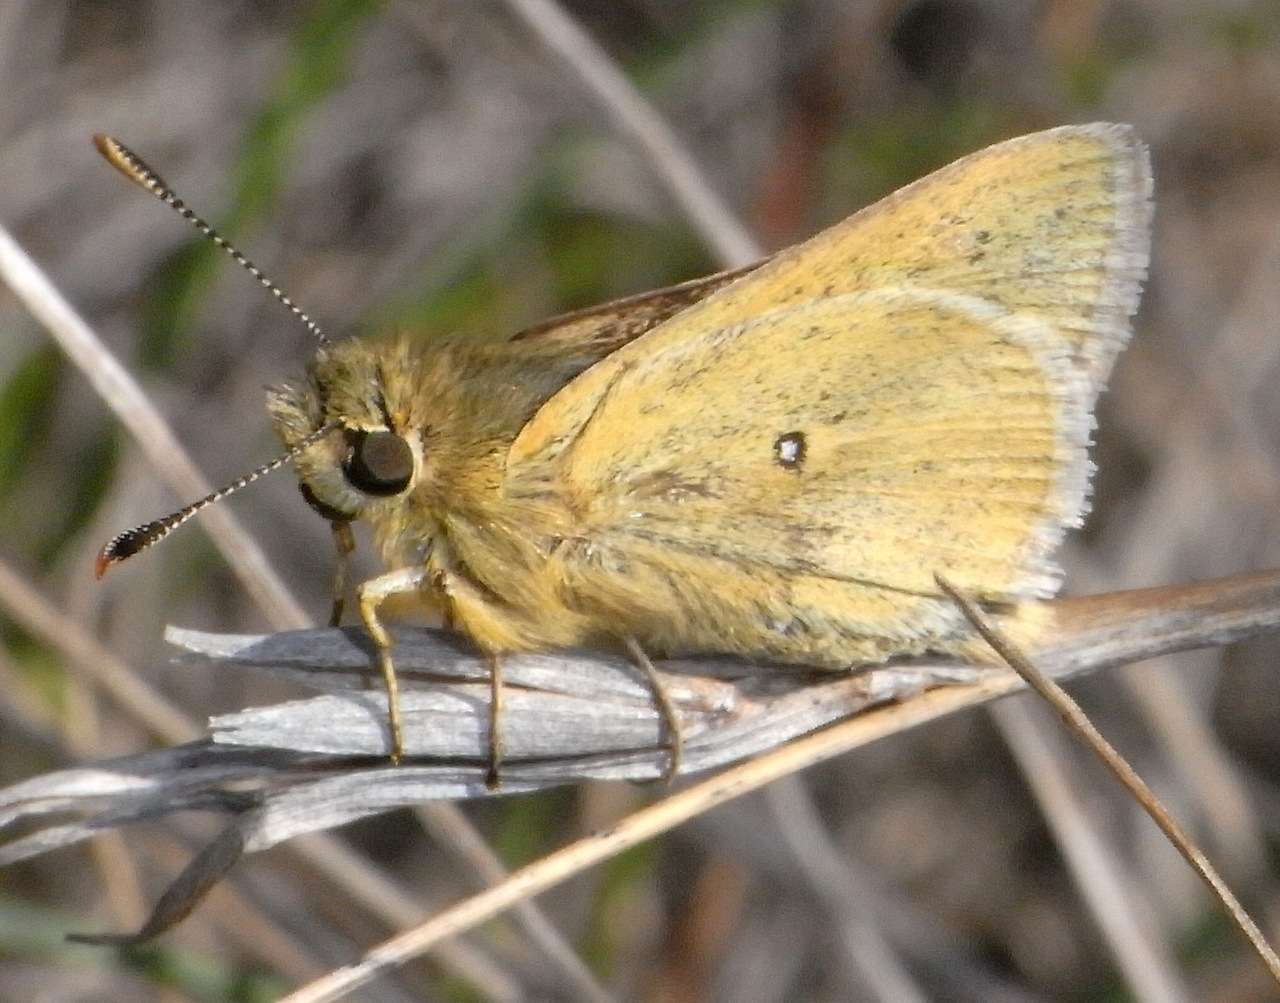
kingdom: Animalia
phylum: Arthropoda
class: Insecta
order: Lepidoptera
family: Hesperiidae
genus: Trapezites
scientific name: Trapezites lutea
